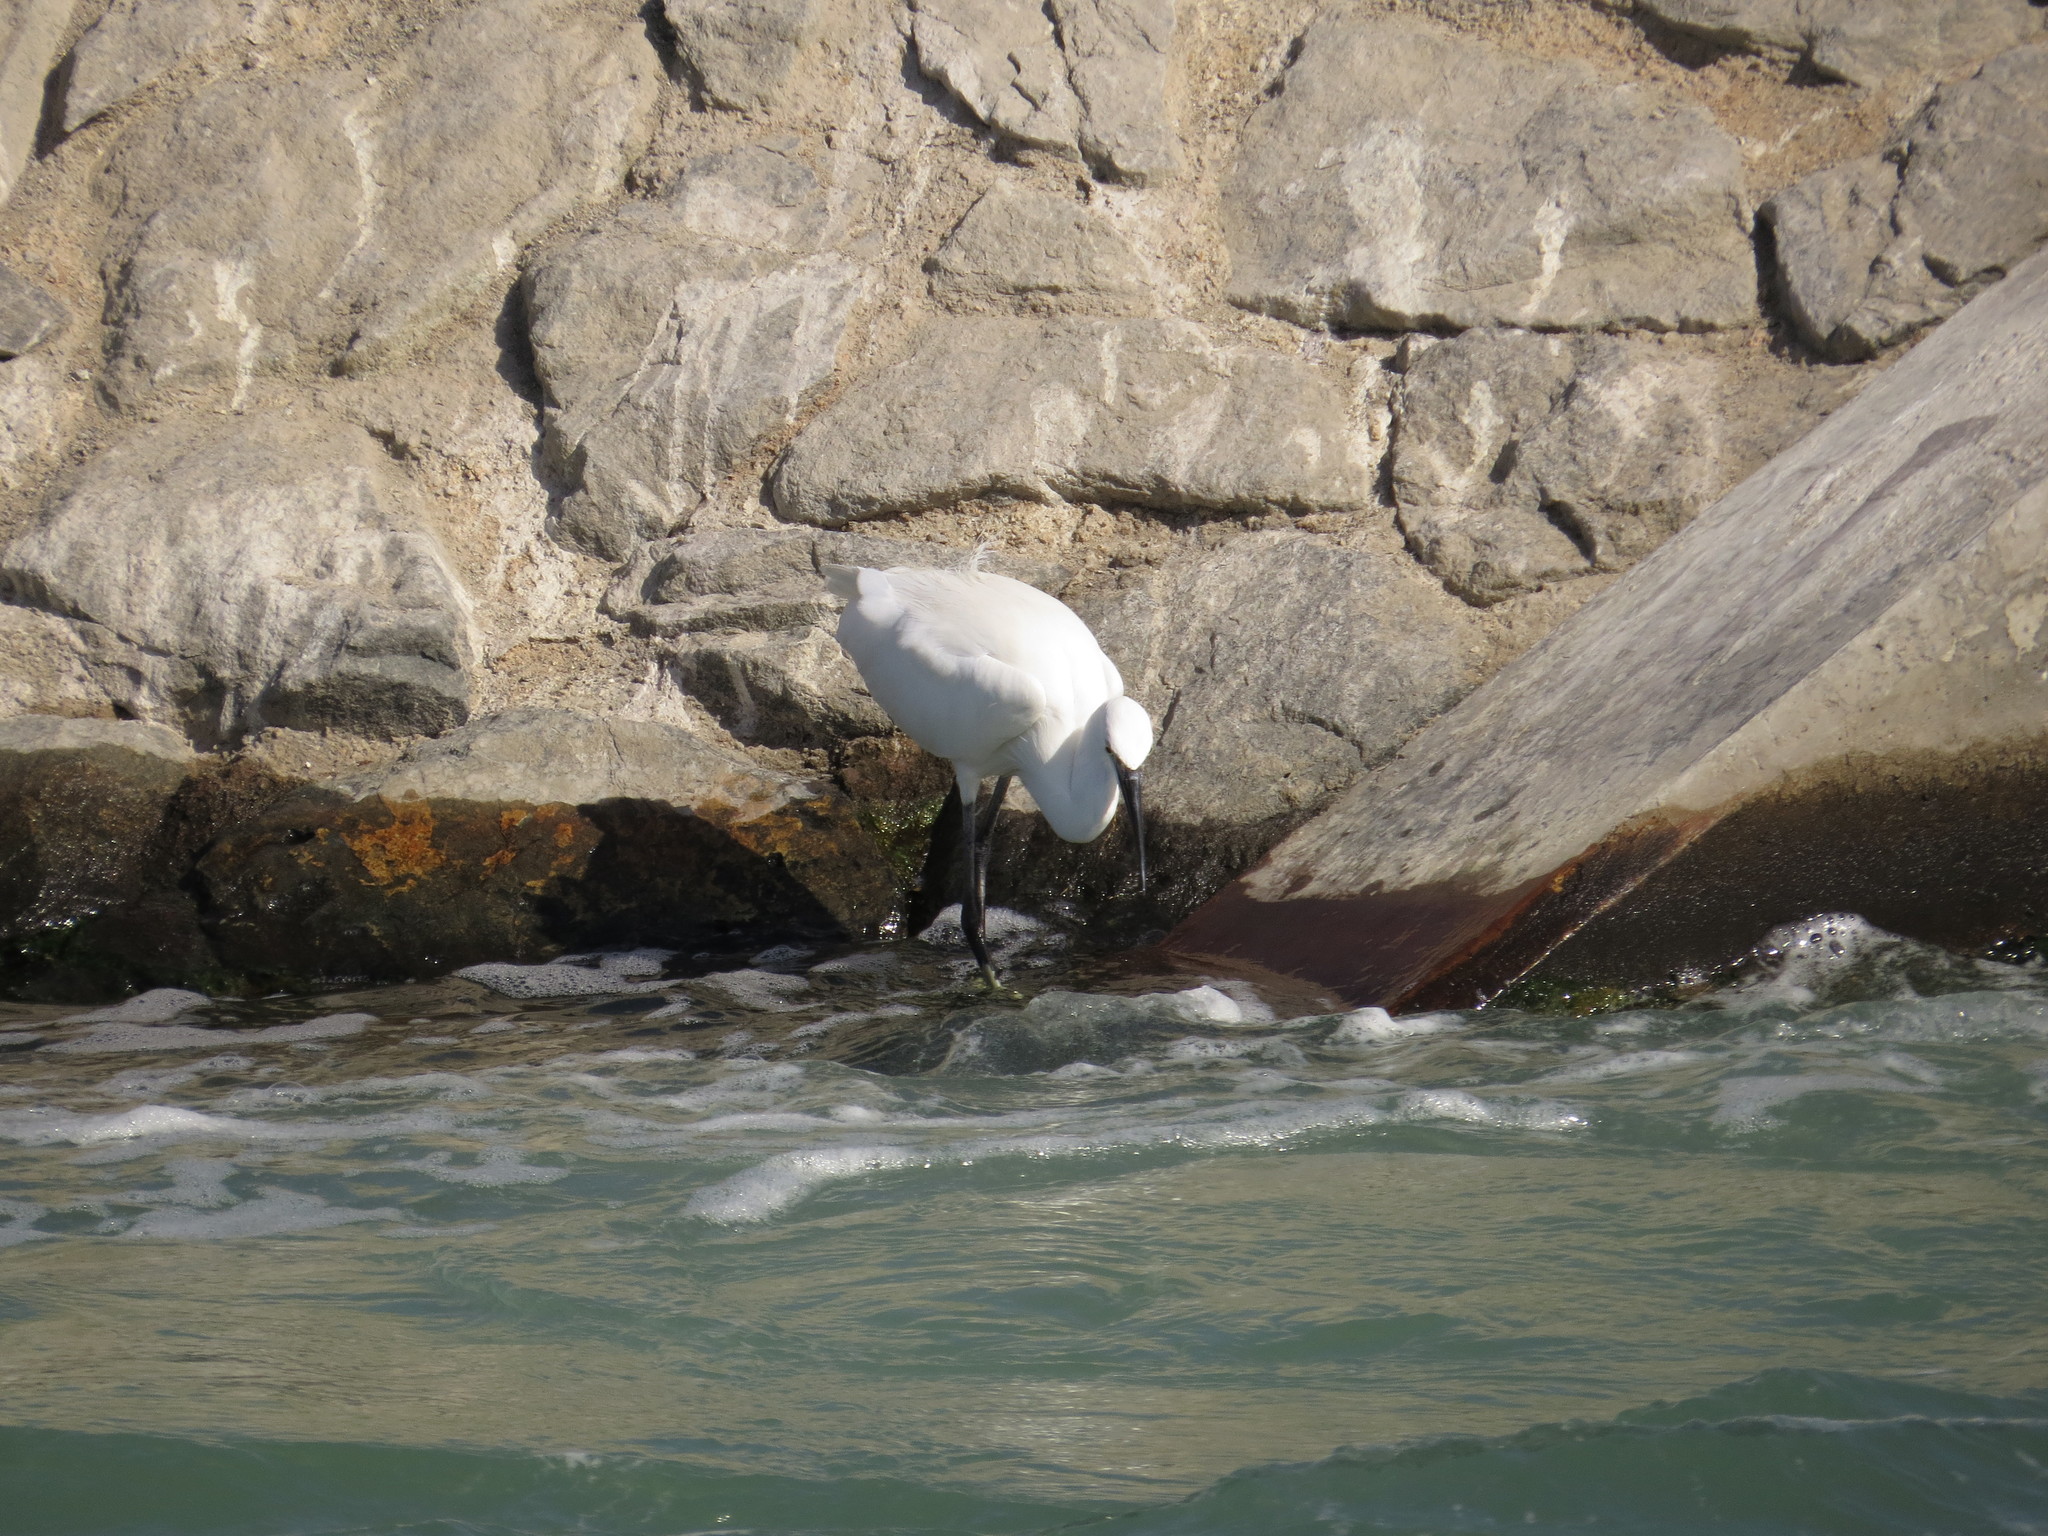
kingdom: Animalia
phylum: Chordata
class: Aves
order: Pelecaniformes
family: Ardeidae
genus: Egretta
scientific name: Egretta garzetta
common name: Little egret
